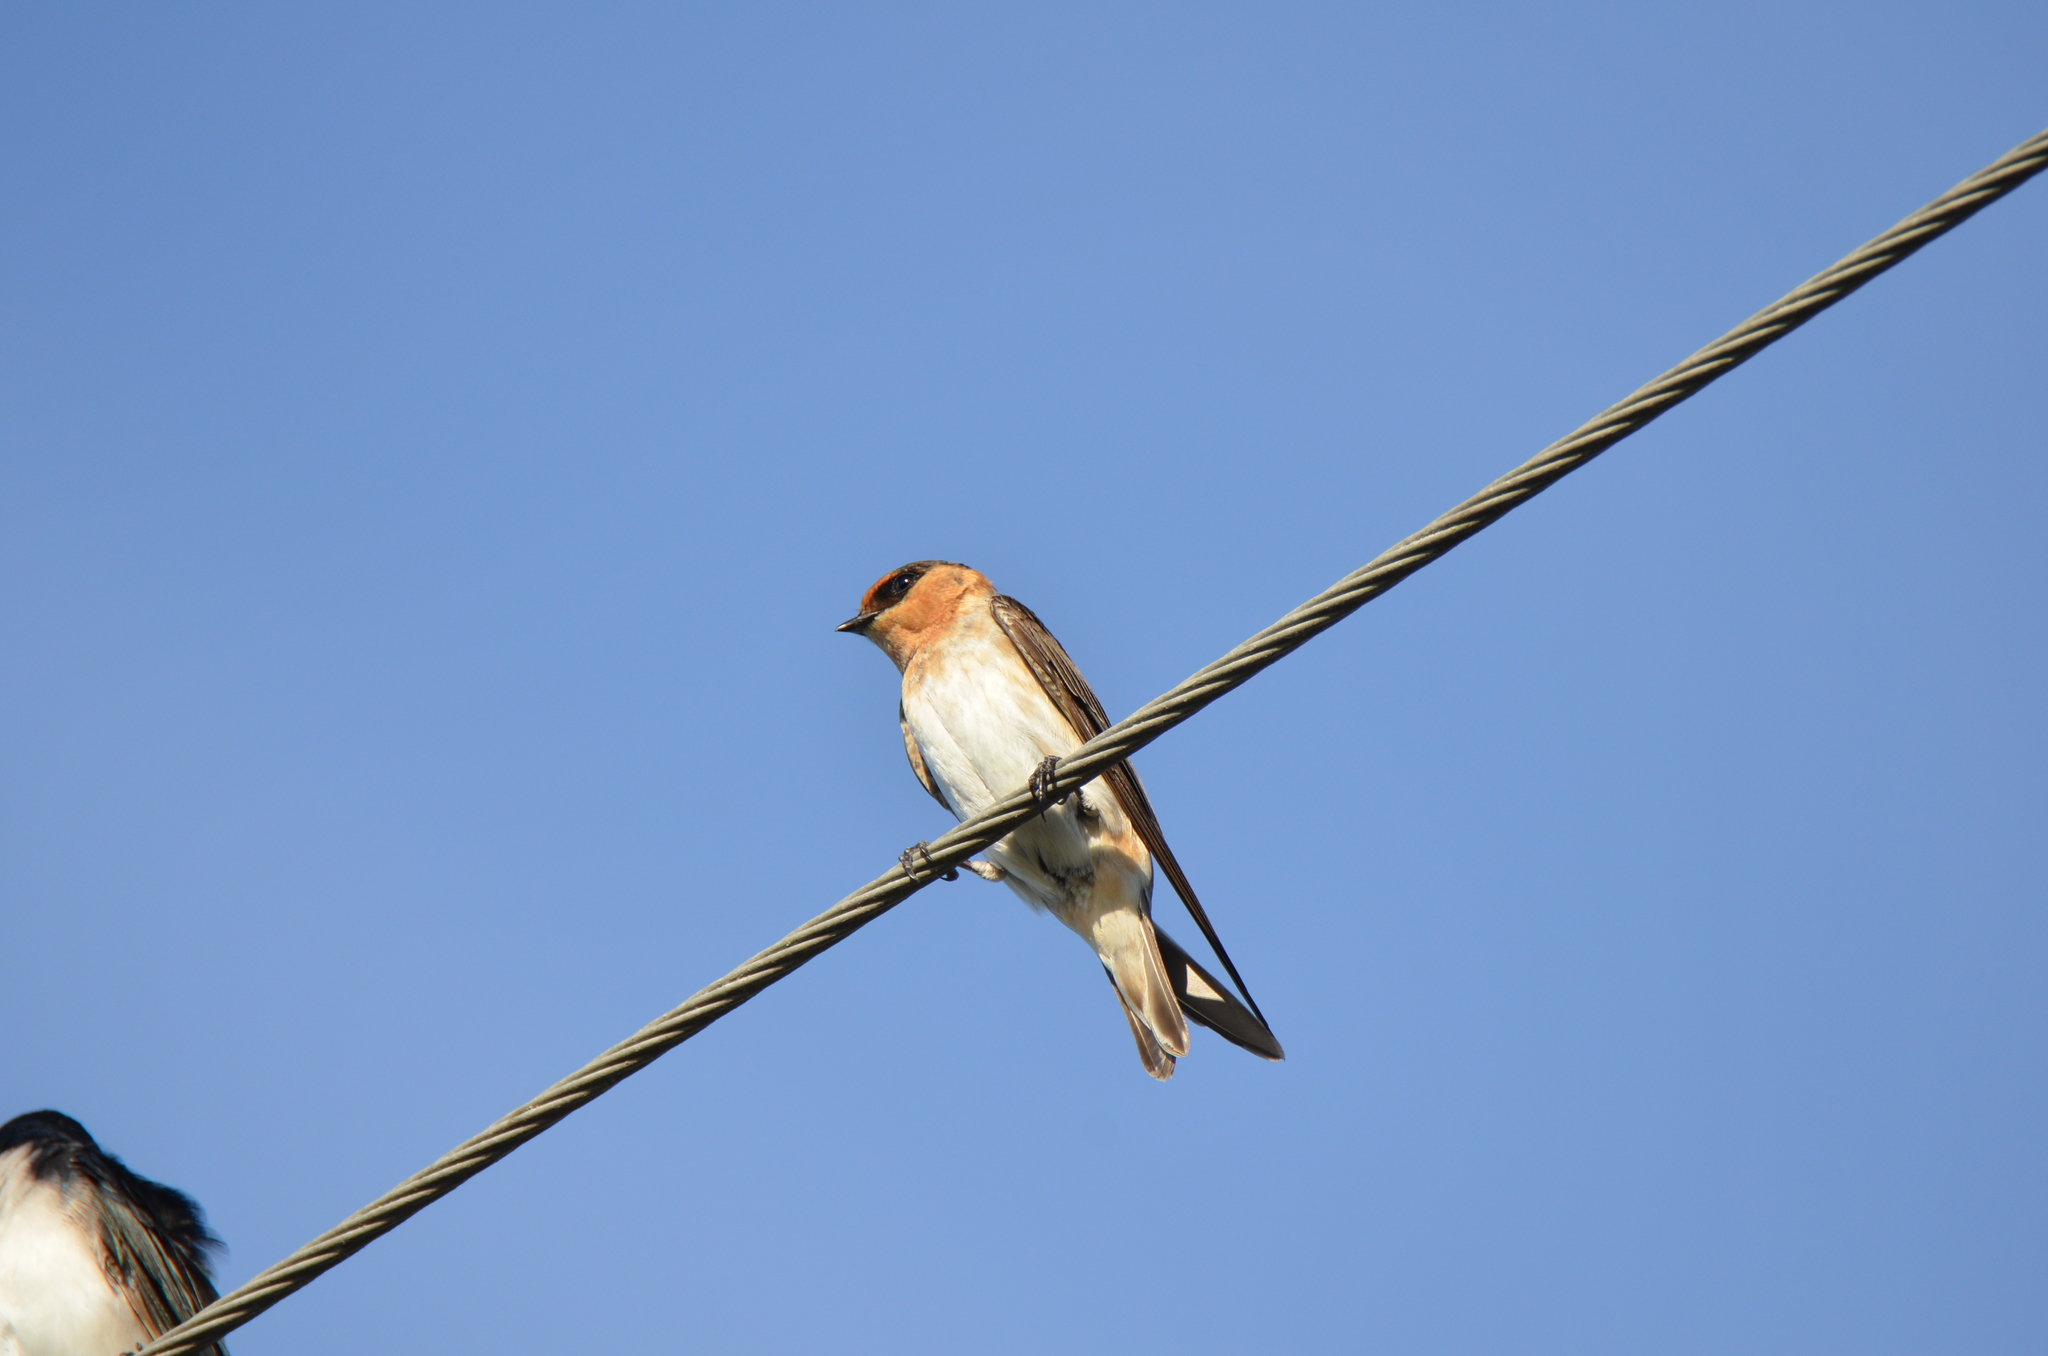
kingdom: Animalia
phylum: Chordata
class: Aves
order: Passeriformes
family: Hirundinidae
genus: Petrochelidon
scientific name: Petrochelidon fulva
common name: Cave swallow
